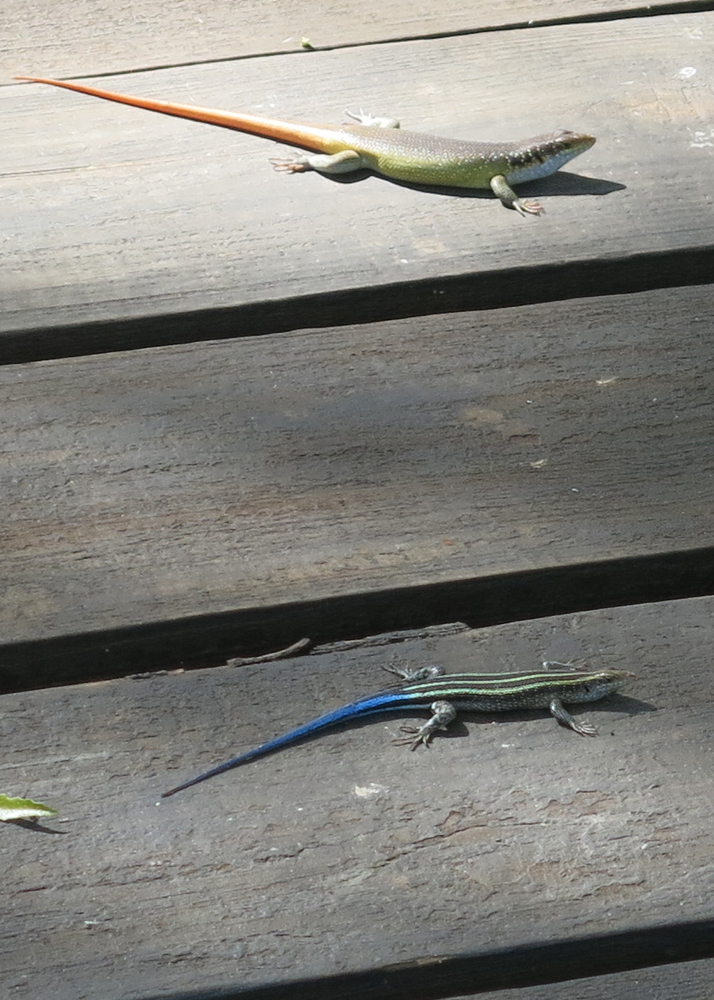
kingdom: Animalia
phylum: Chordata
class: Squamata
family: Scincidae
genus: Trachylepis
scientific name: Trachylepis margaritifera
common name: Rainbow skink
